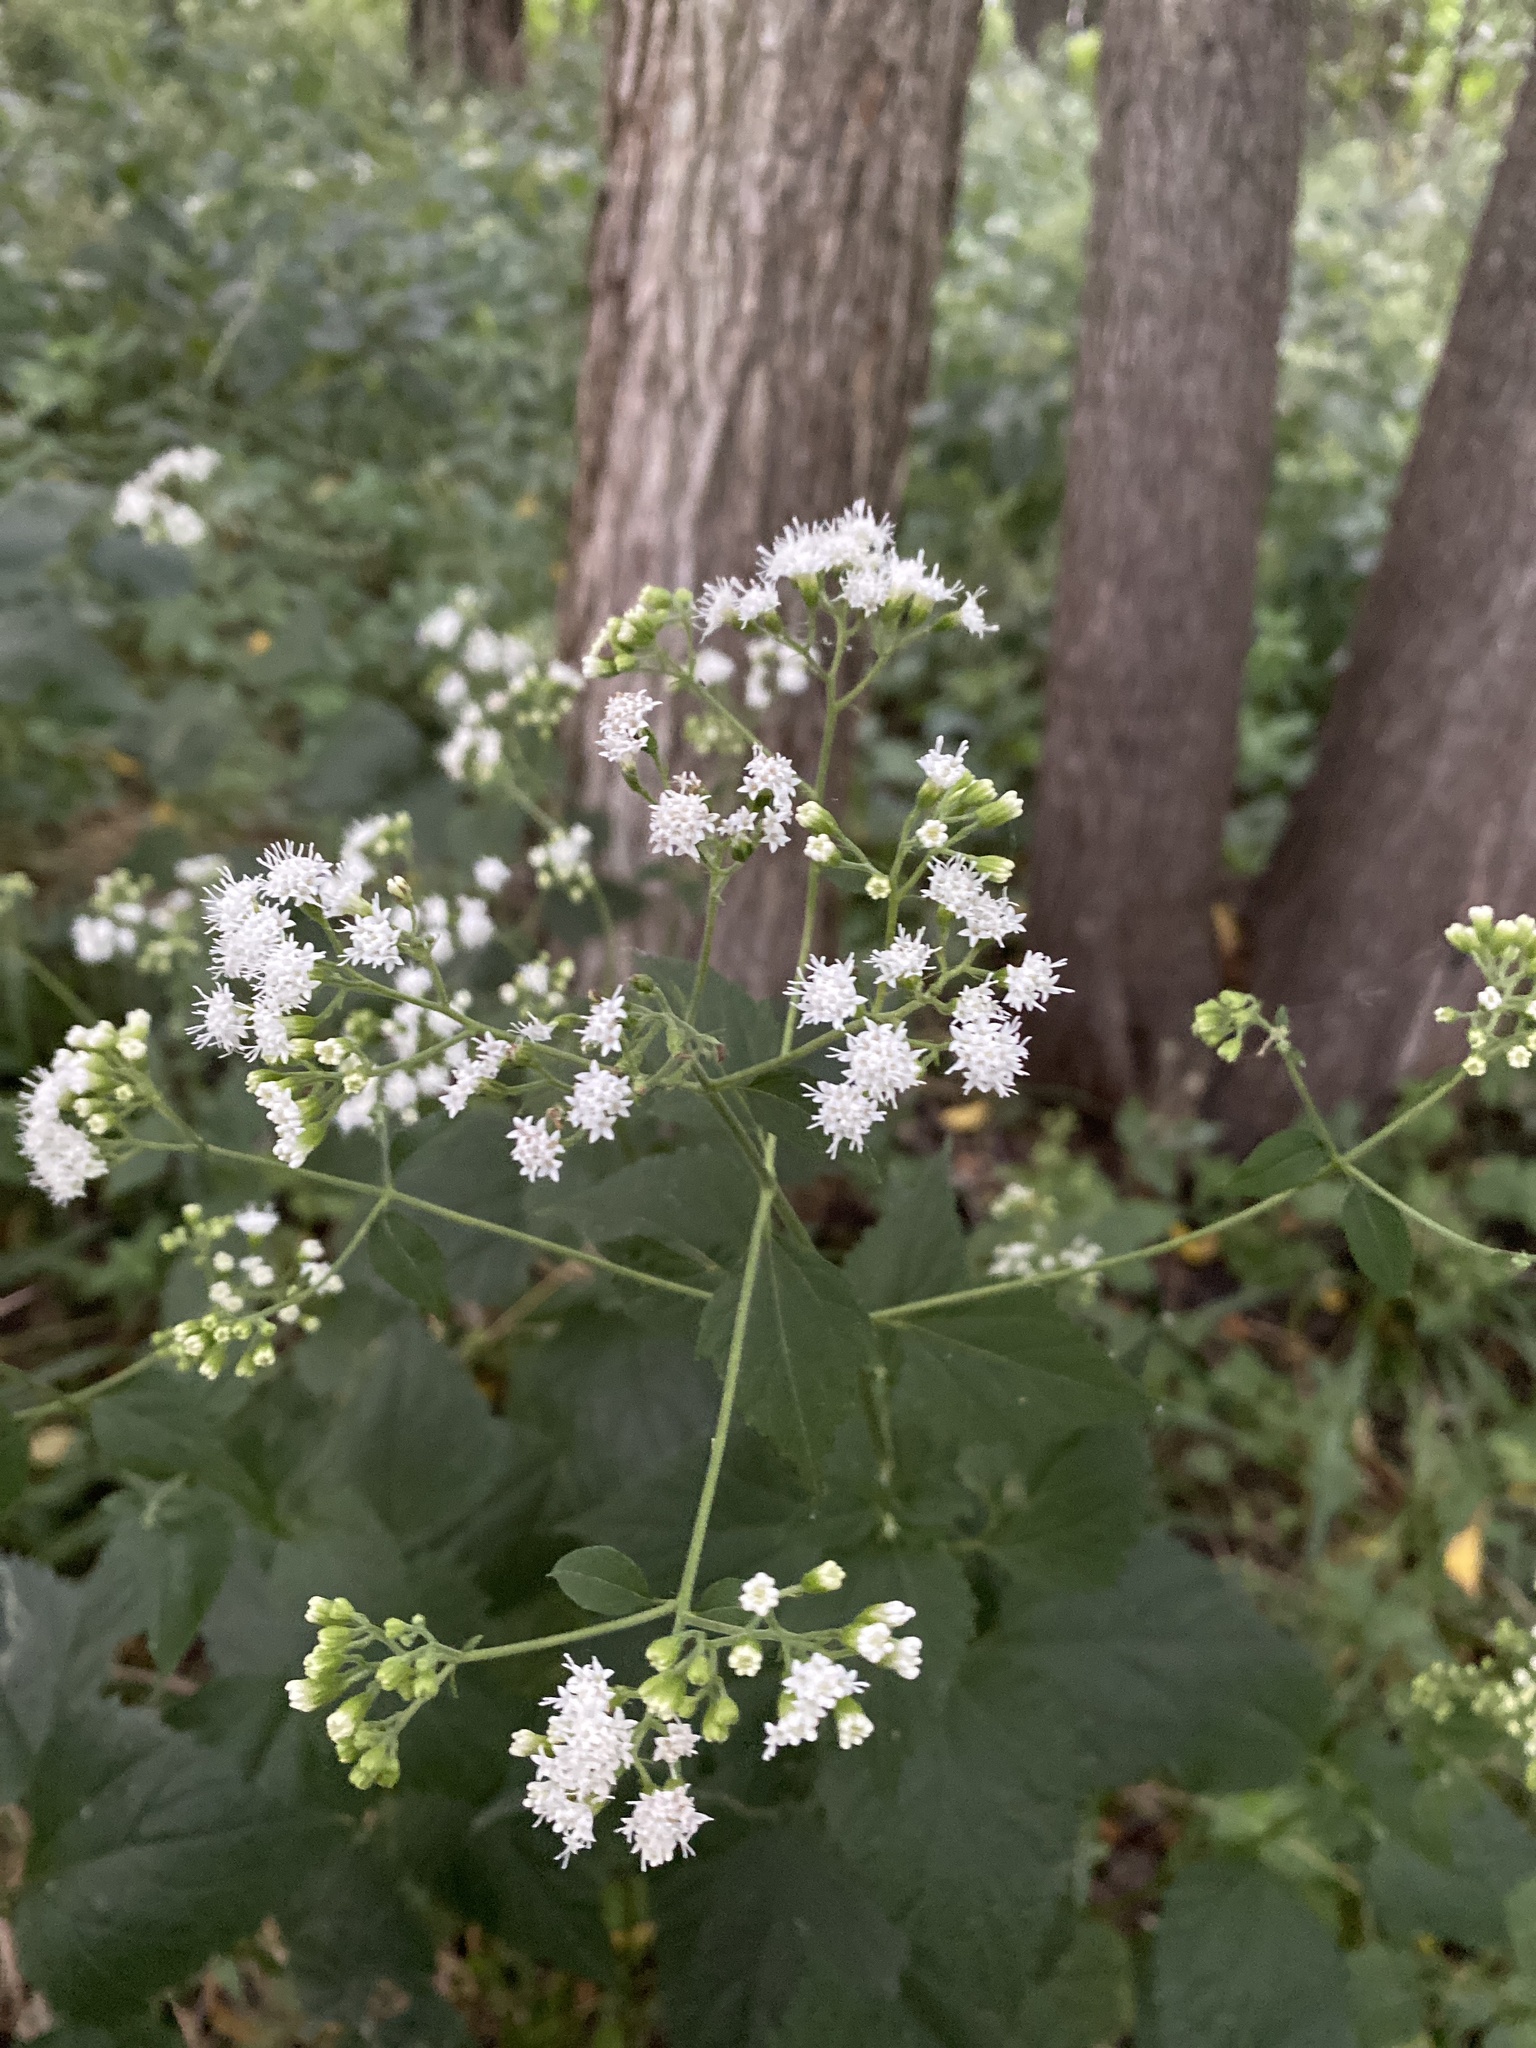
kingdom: Plantae
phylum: Tracheophyta
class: Magnoliopsida
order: Asterales
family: Asteraceae
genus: Ageratina
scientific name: Ageratina altissima
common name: White snakeroot
